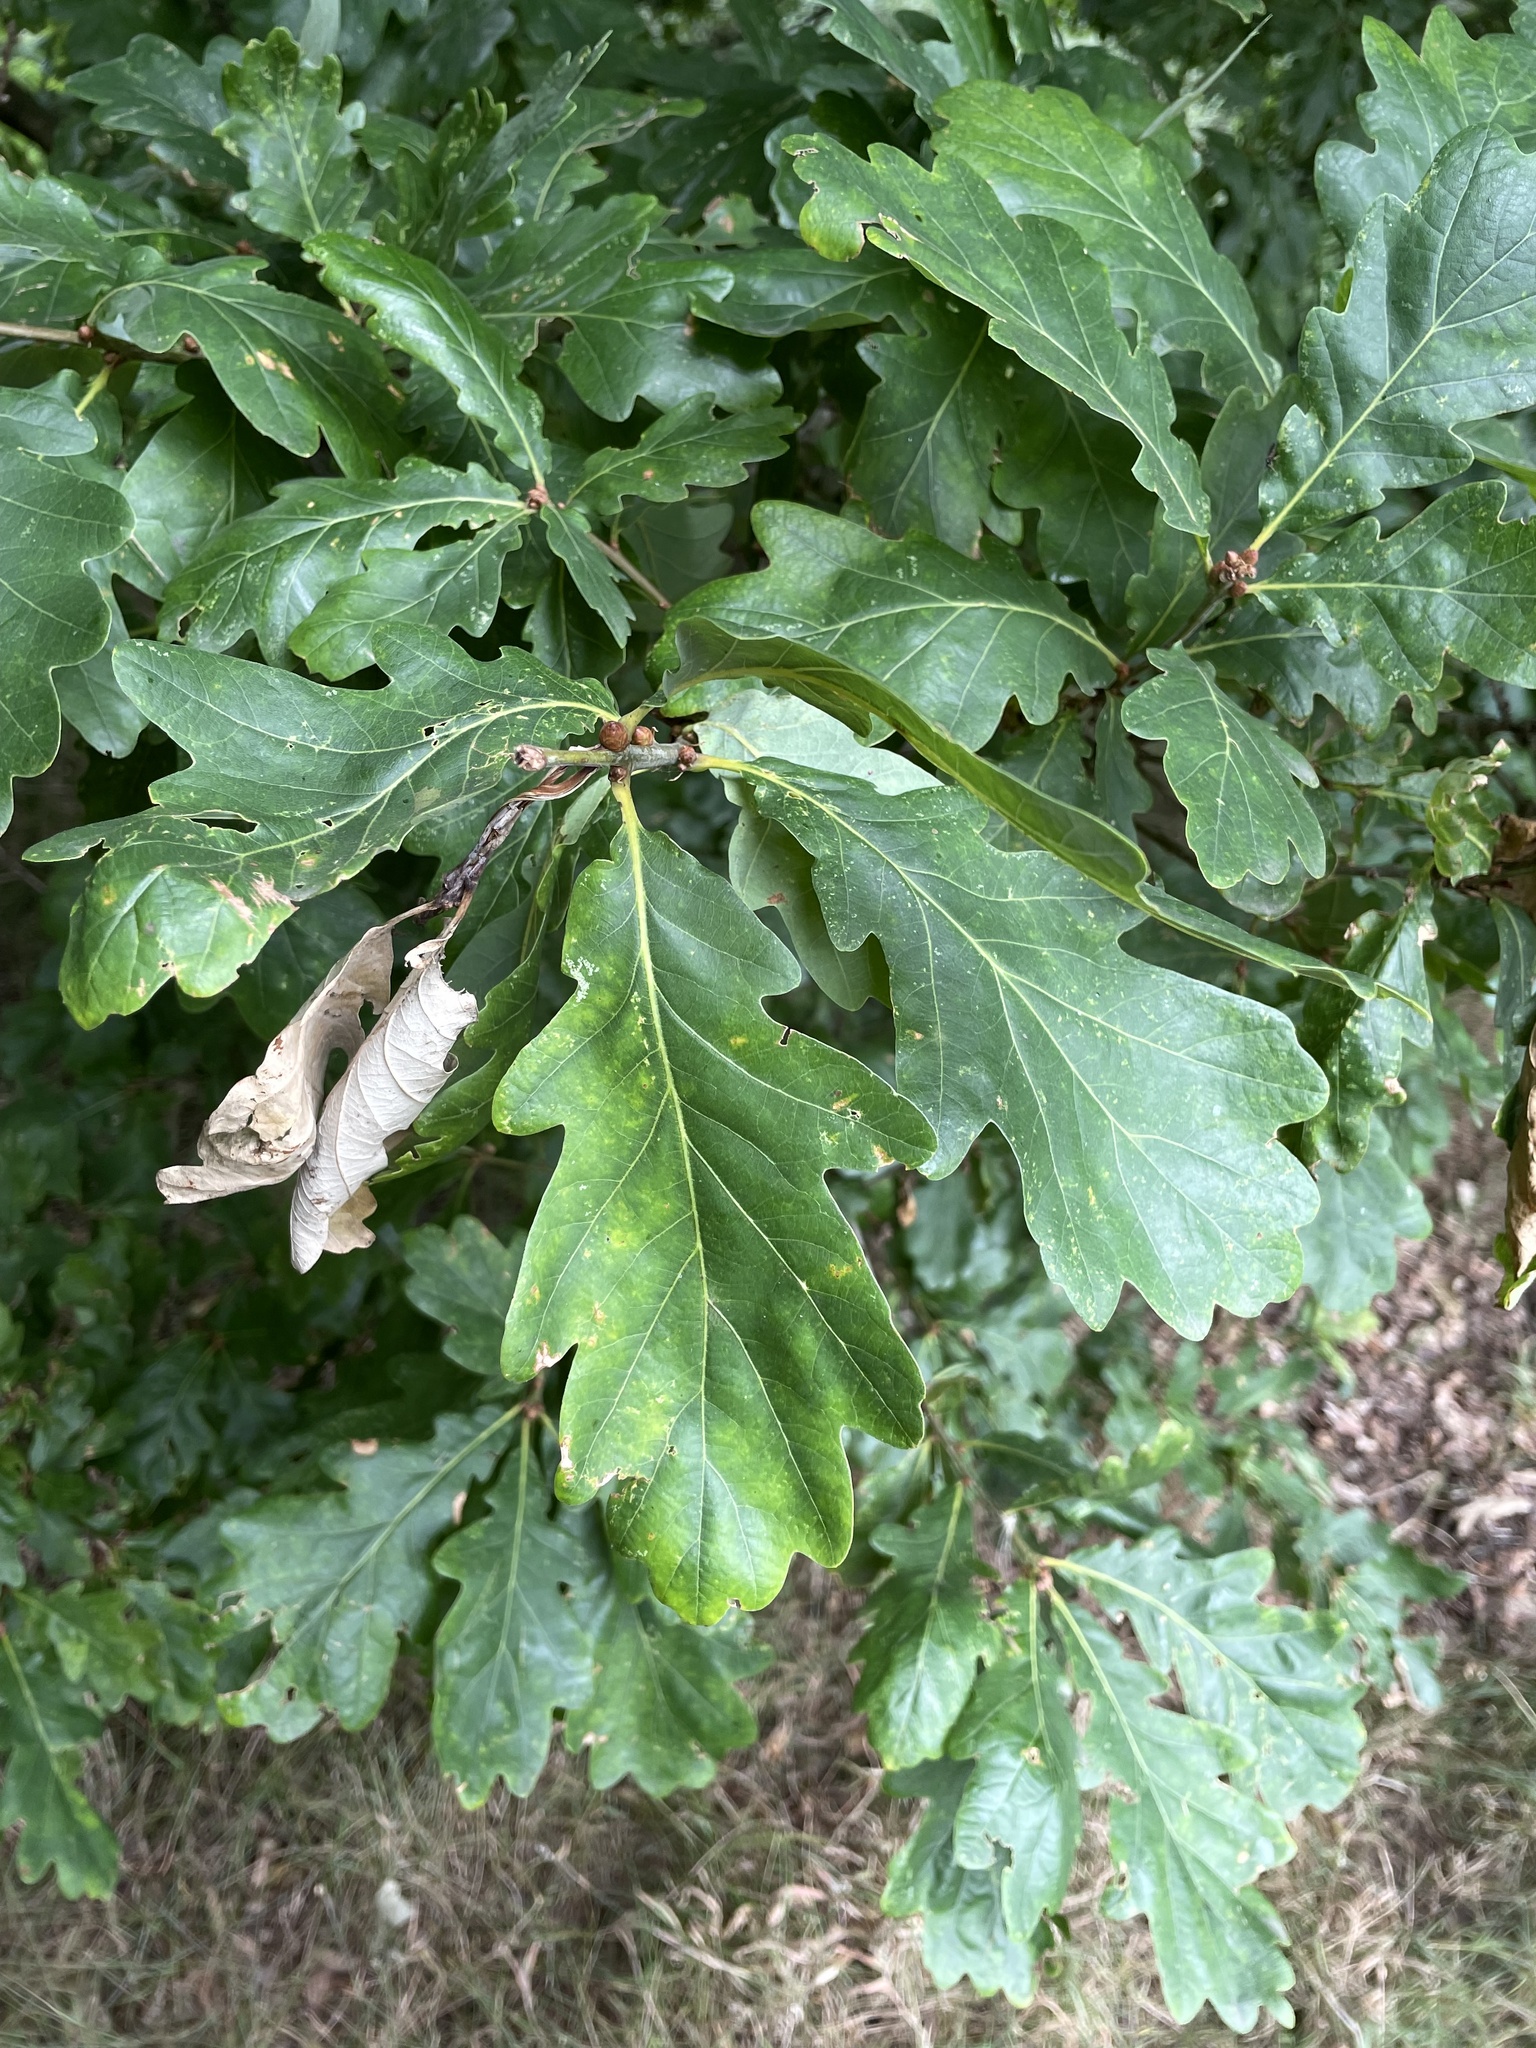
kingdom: Plantae
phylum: Tracheophyta
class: Magnoliopsida
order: Fagales
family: Fagaceae
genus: Quercus
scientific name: Quercus petraea
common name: Sessile oak
